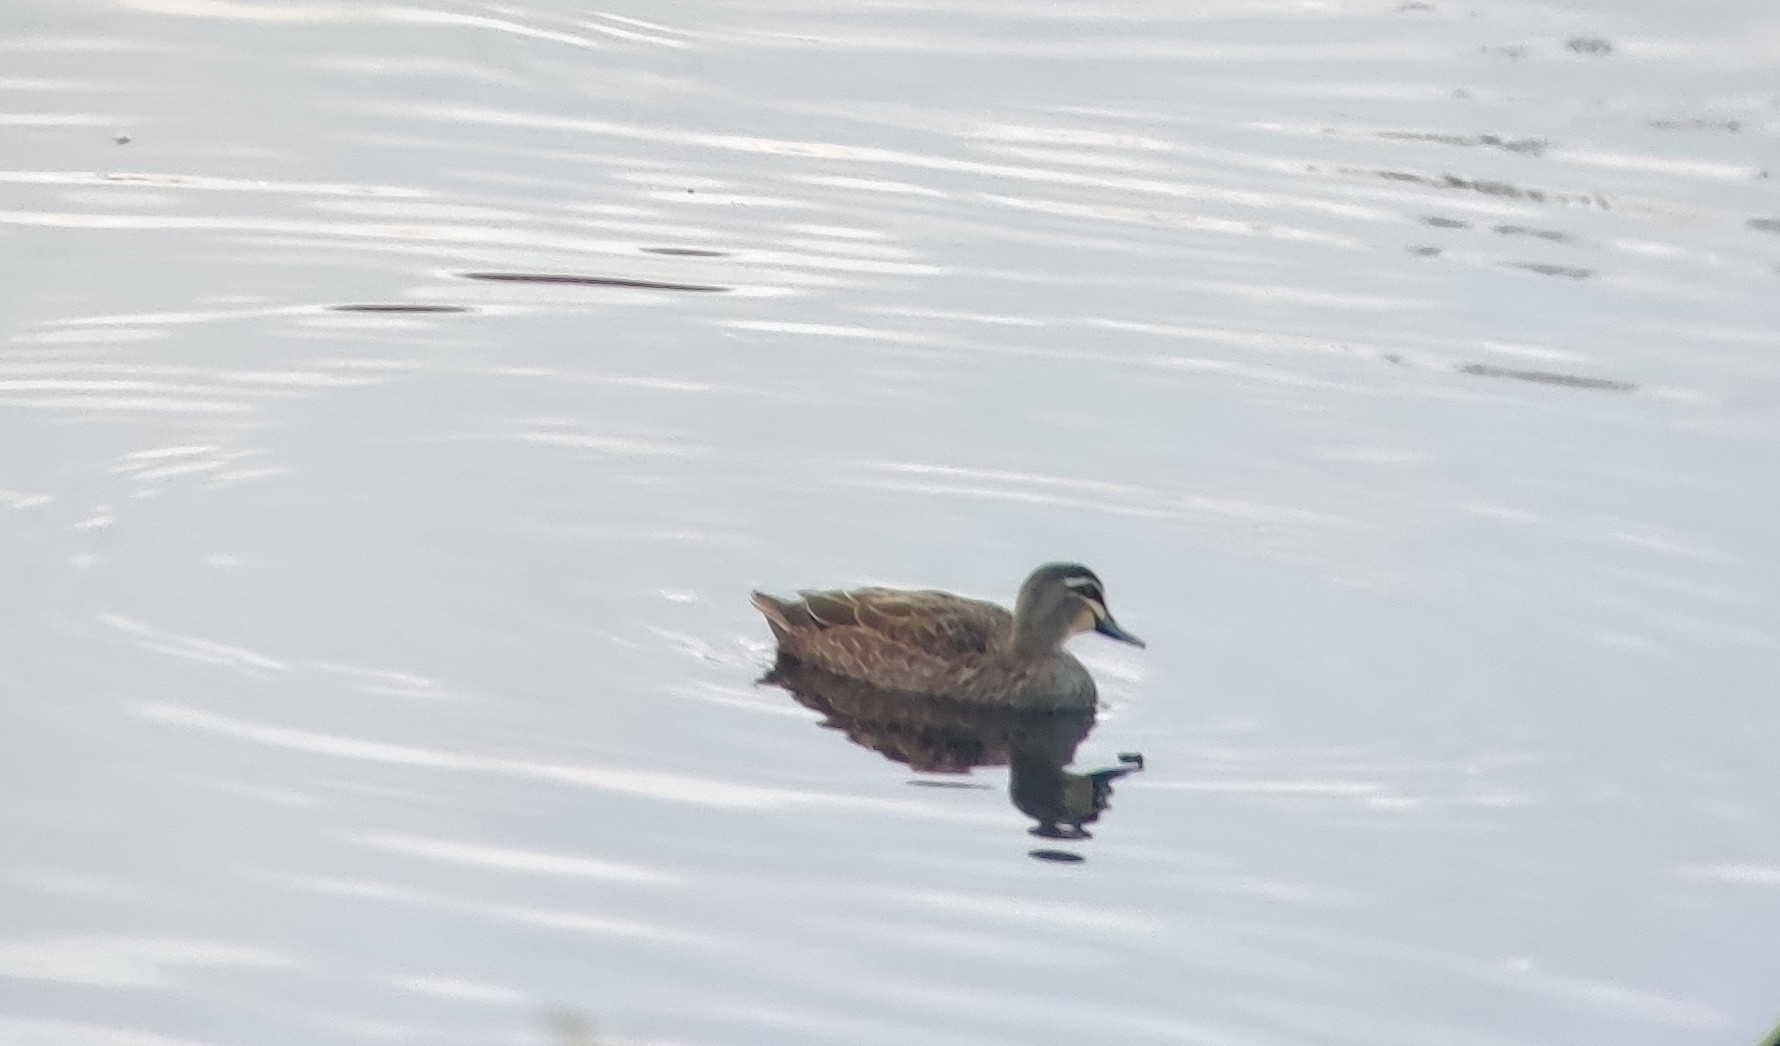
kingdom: Animalia
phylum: Chordata
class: Aves
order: Anseriformes
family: Anatidae
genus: Anas
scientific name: Anas superciliosa
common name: Pacific black duck
